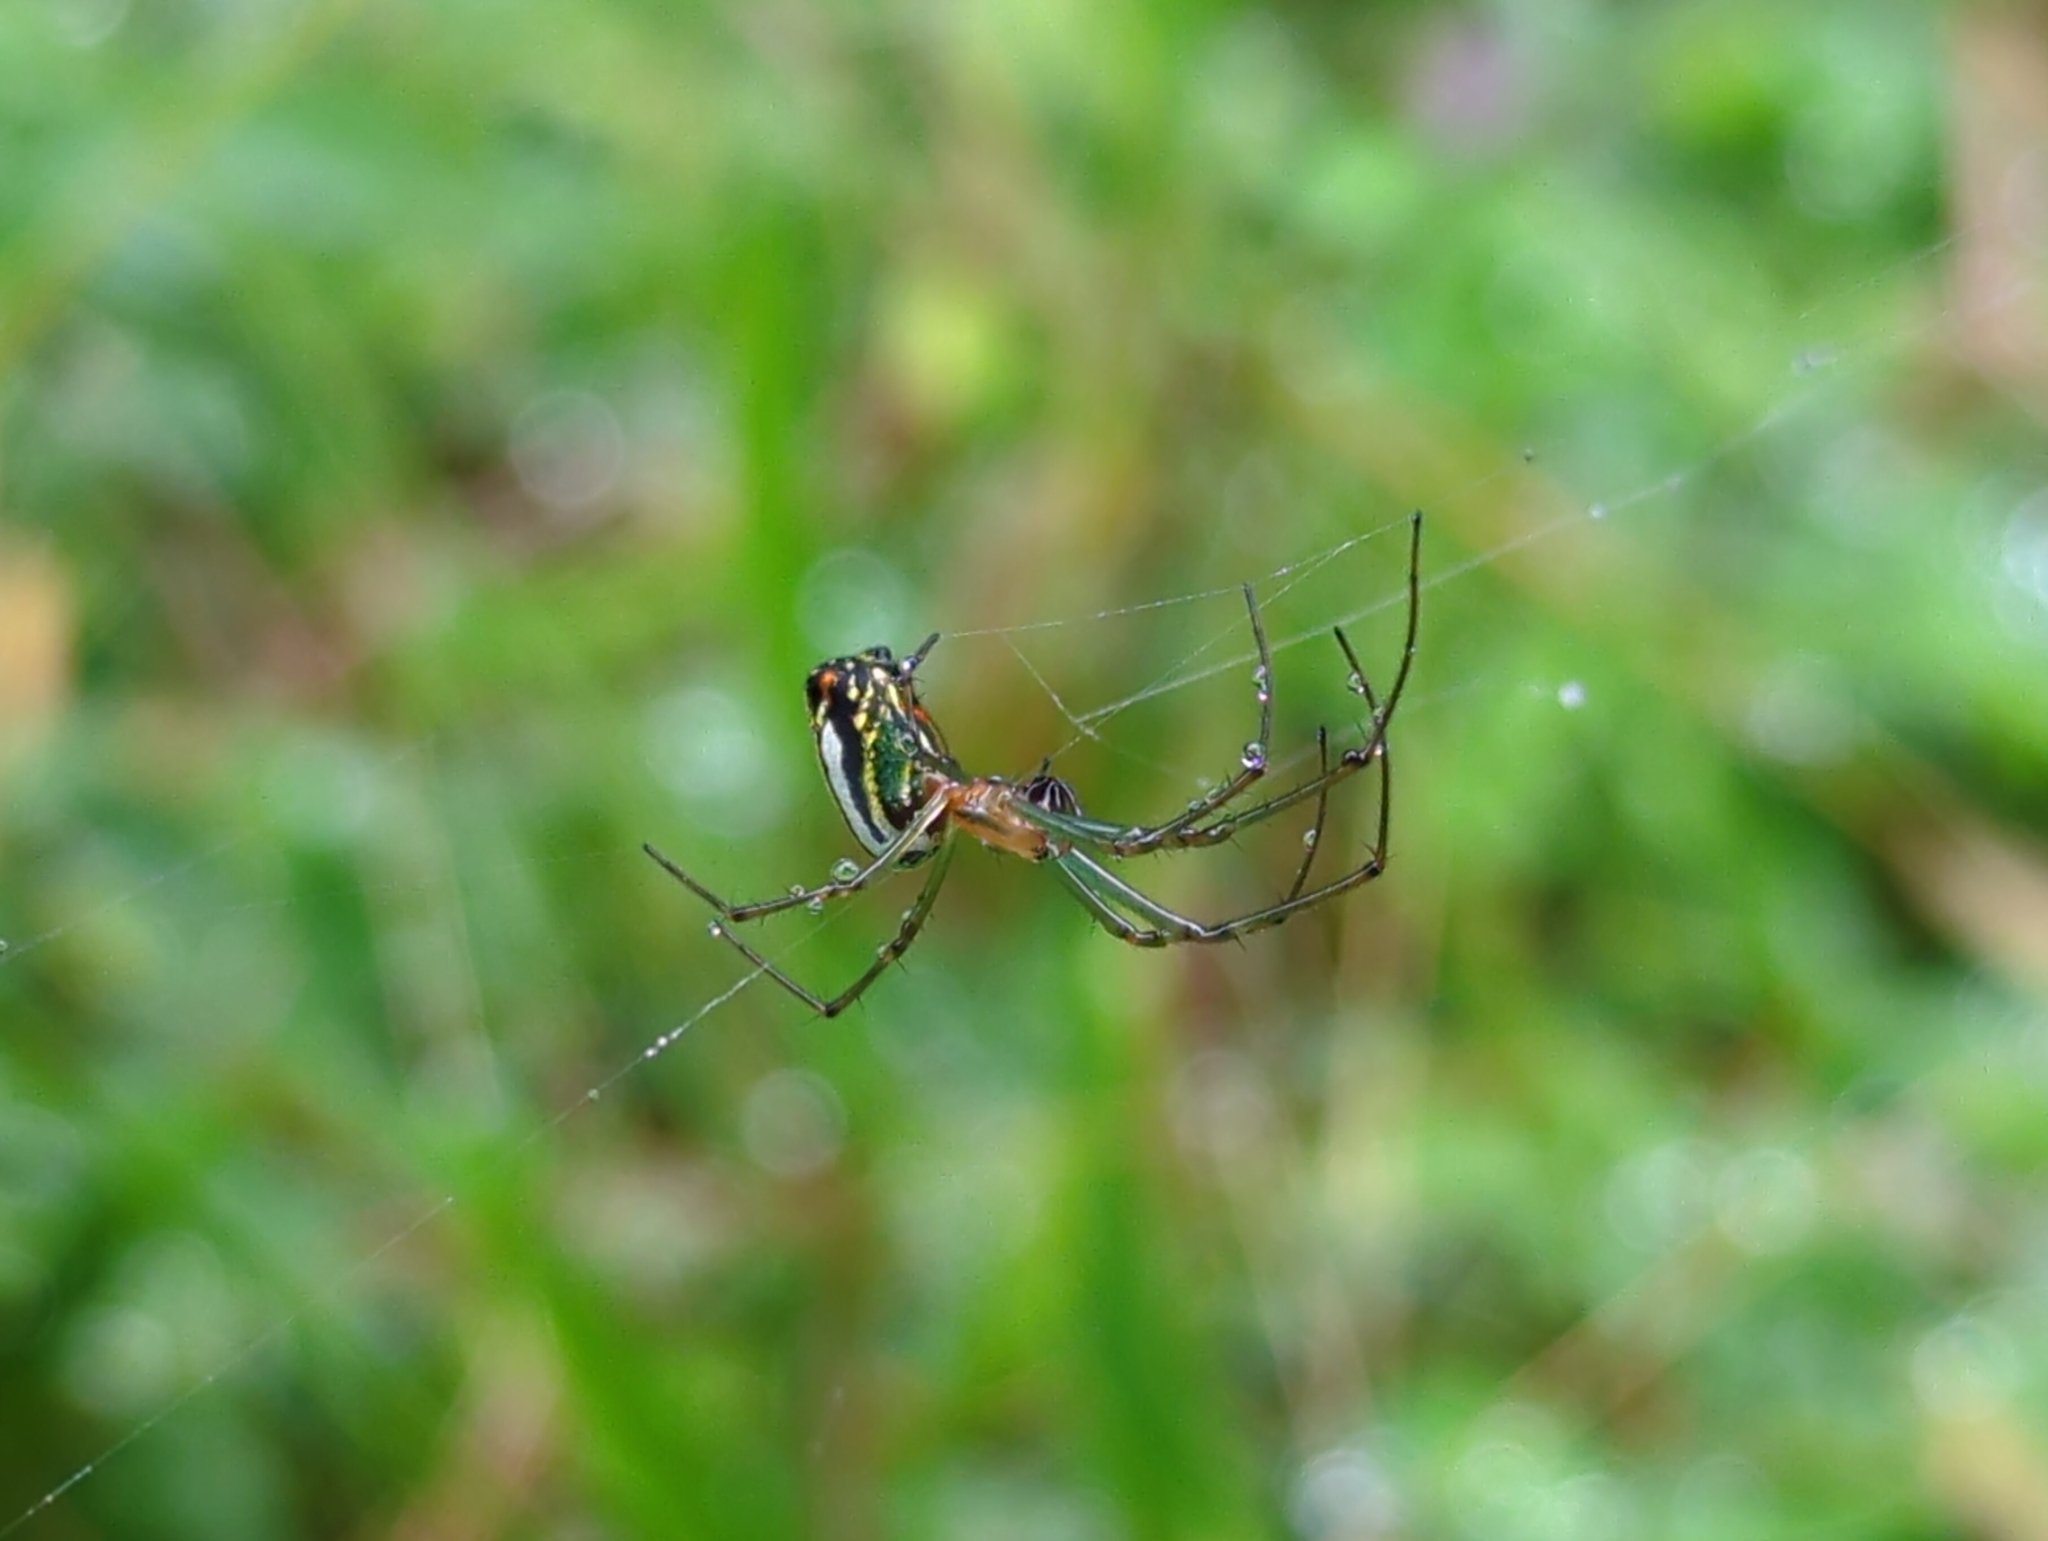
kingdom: Animalia
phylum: Arthropoda
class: Arachnida
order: Araneae
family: Tetragnathidae
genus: Leucauge
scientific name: Leucauge mariana
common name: Longjawed orb weavers
